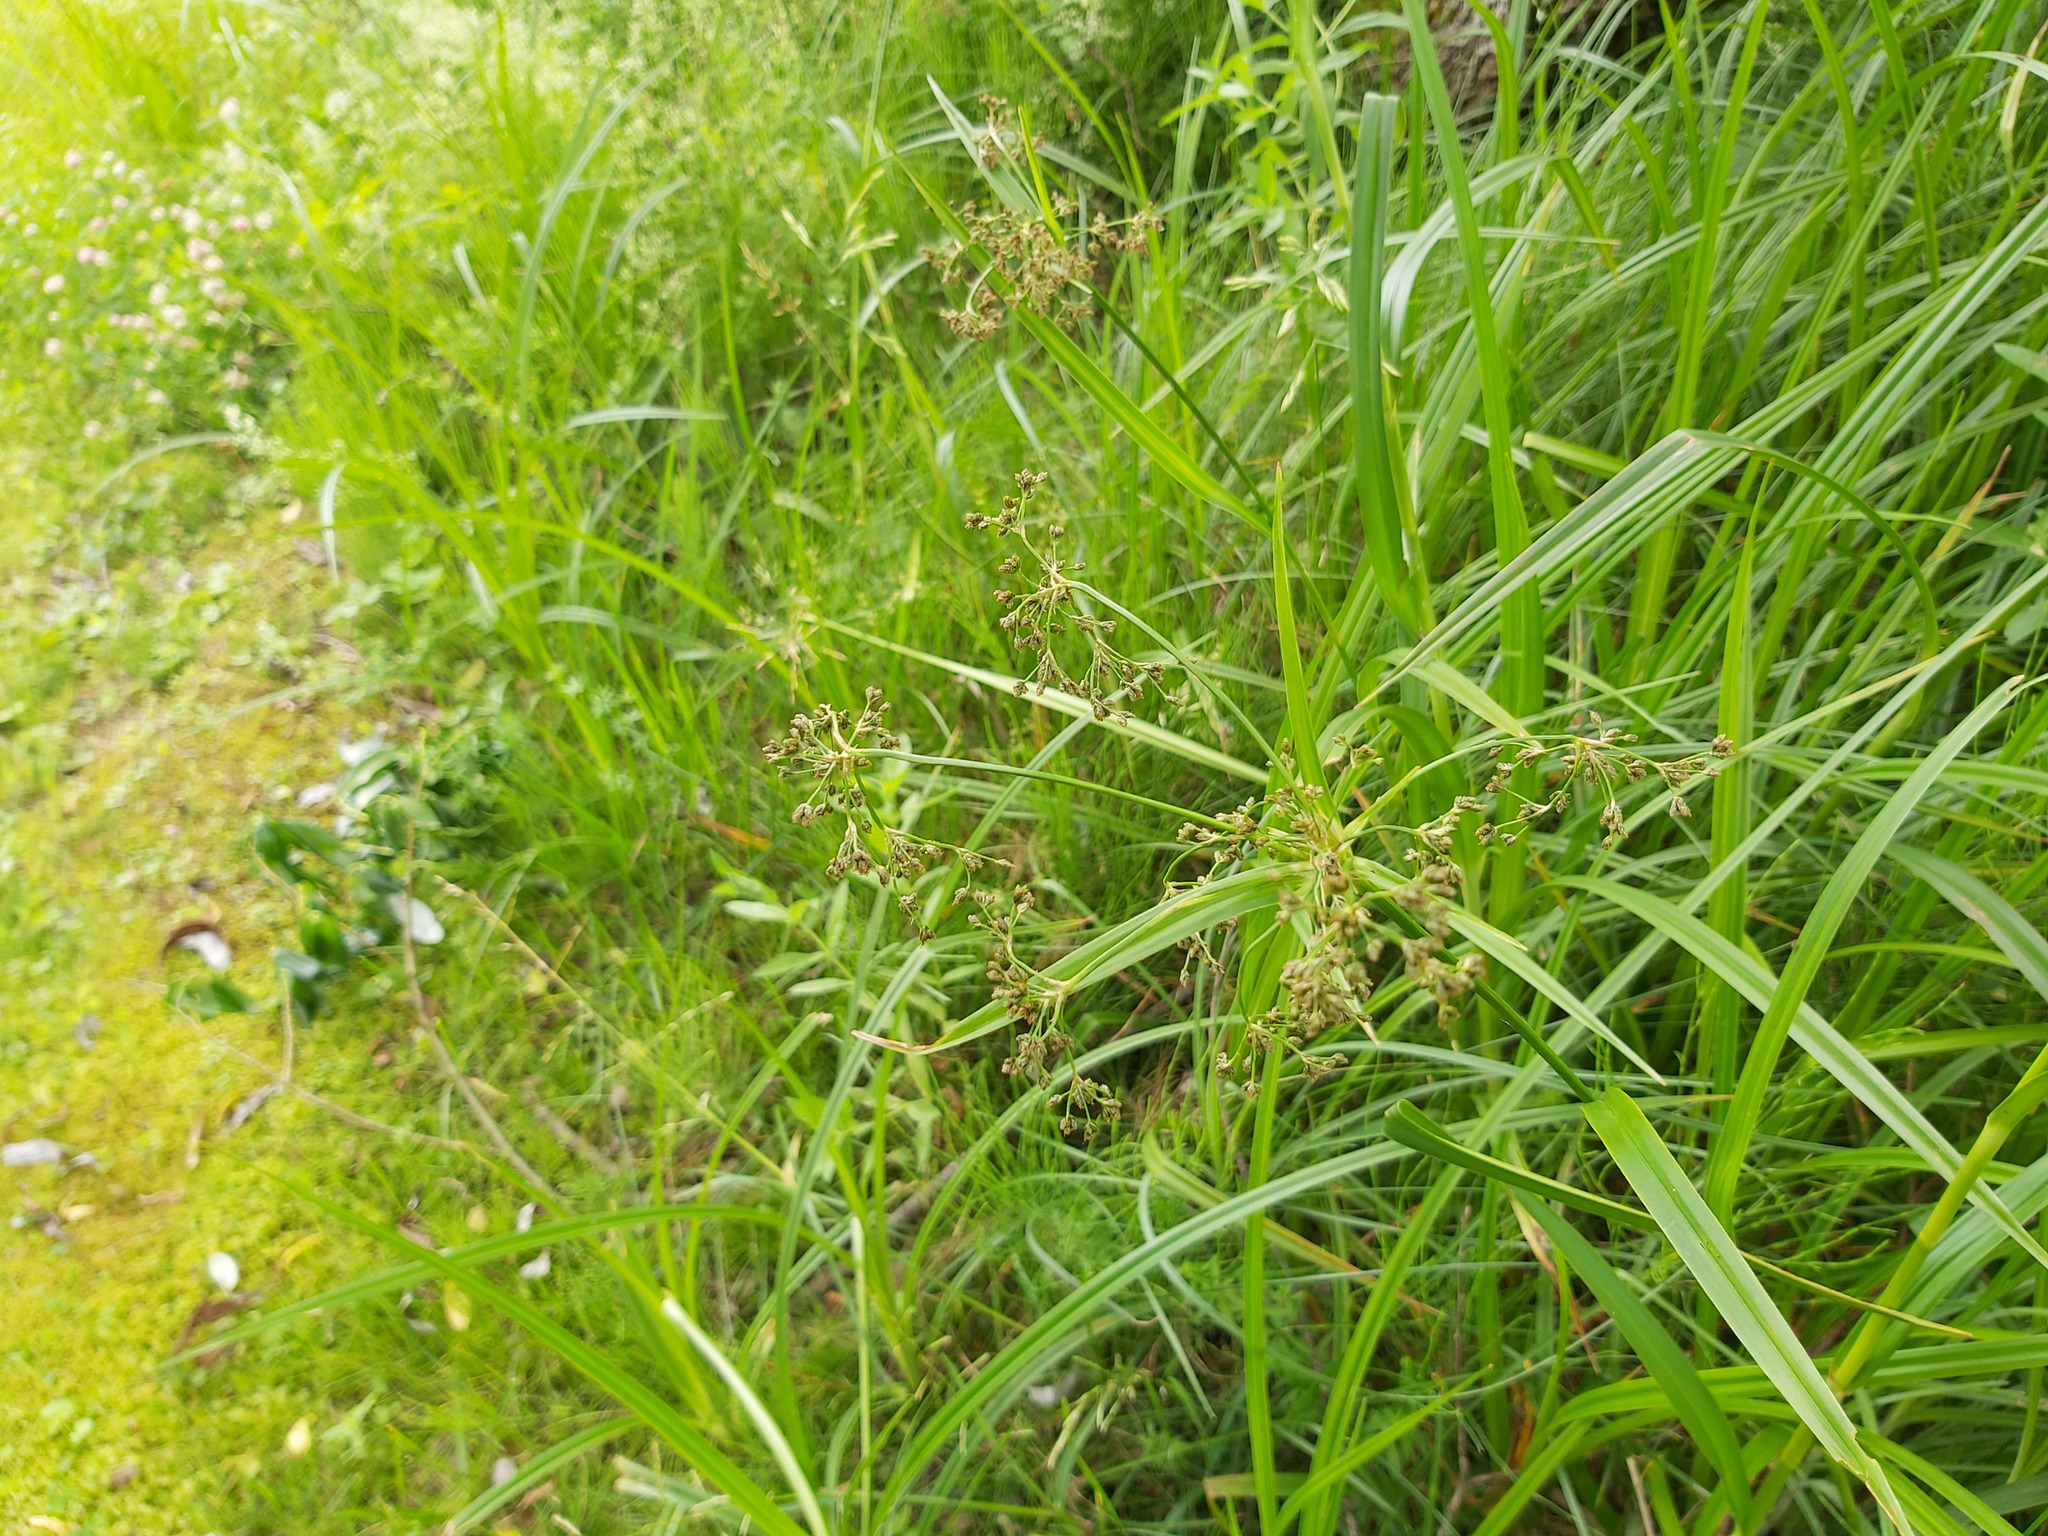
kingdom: Plantae
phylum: Tracheophyta
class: Liliopsida
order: Poales
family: Cyperaceae
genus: Scirpus
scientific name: Scirpus sylvaticus
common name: Wood club-rush
